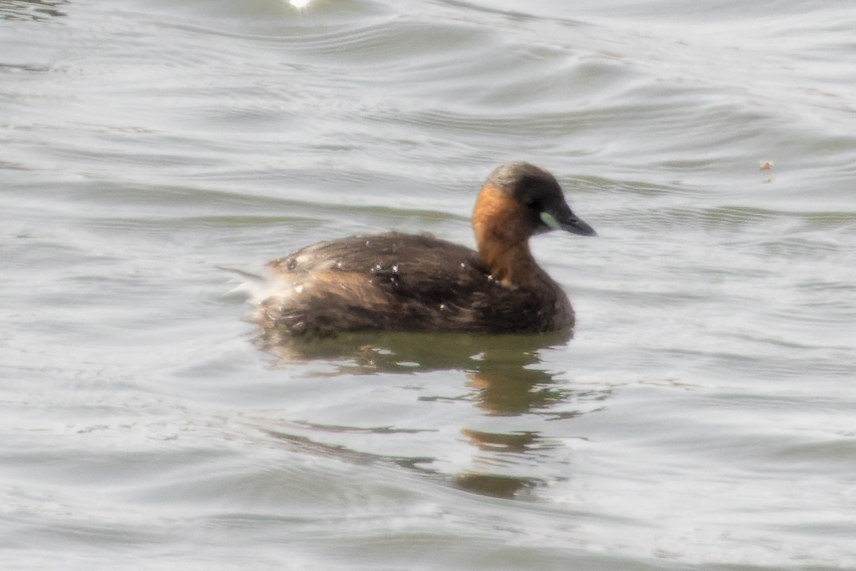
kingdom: Animalia
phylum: Chordata
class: Aves
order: Podicipediformes
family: Podicipedidae
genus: Tachybaptus
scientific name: Tachybaptus ruficollis
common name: Little grebe
